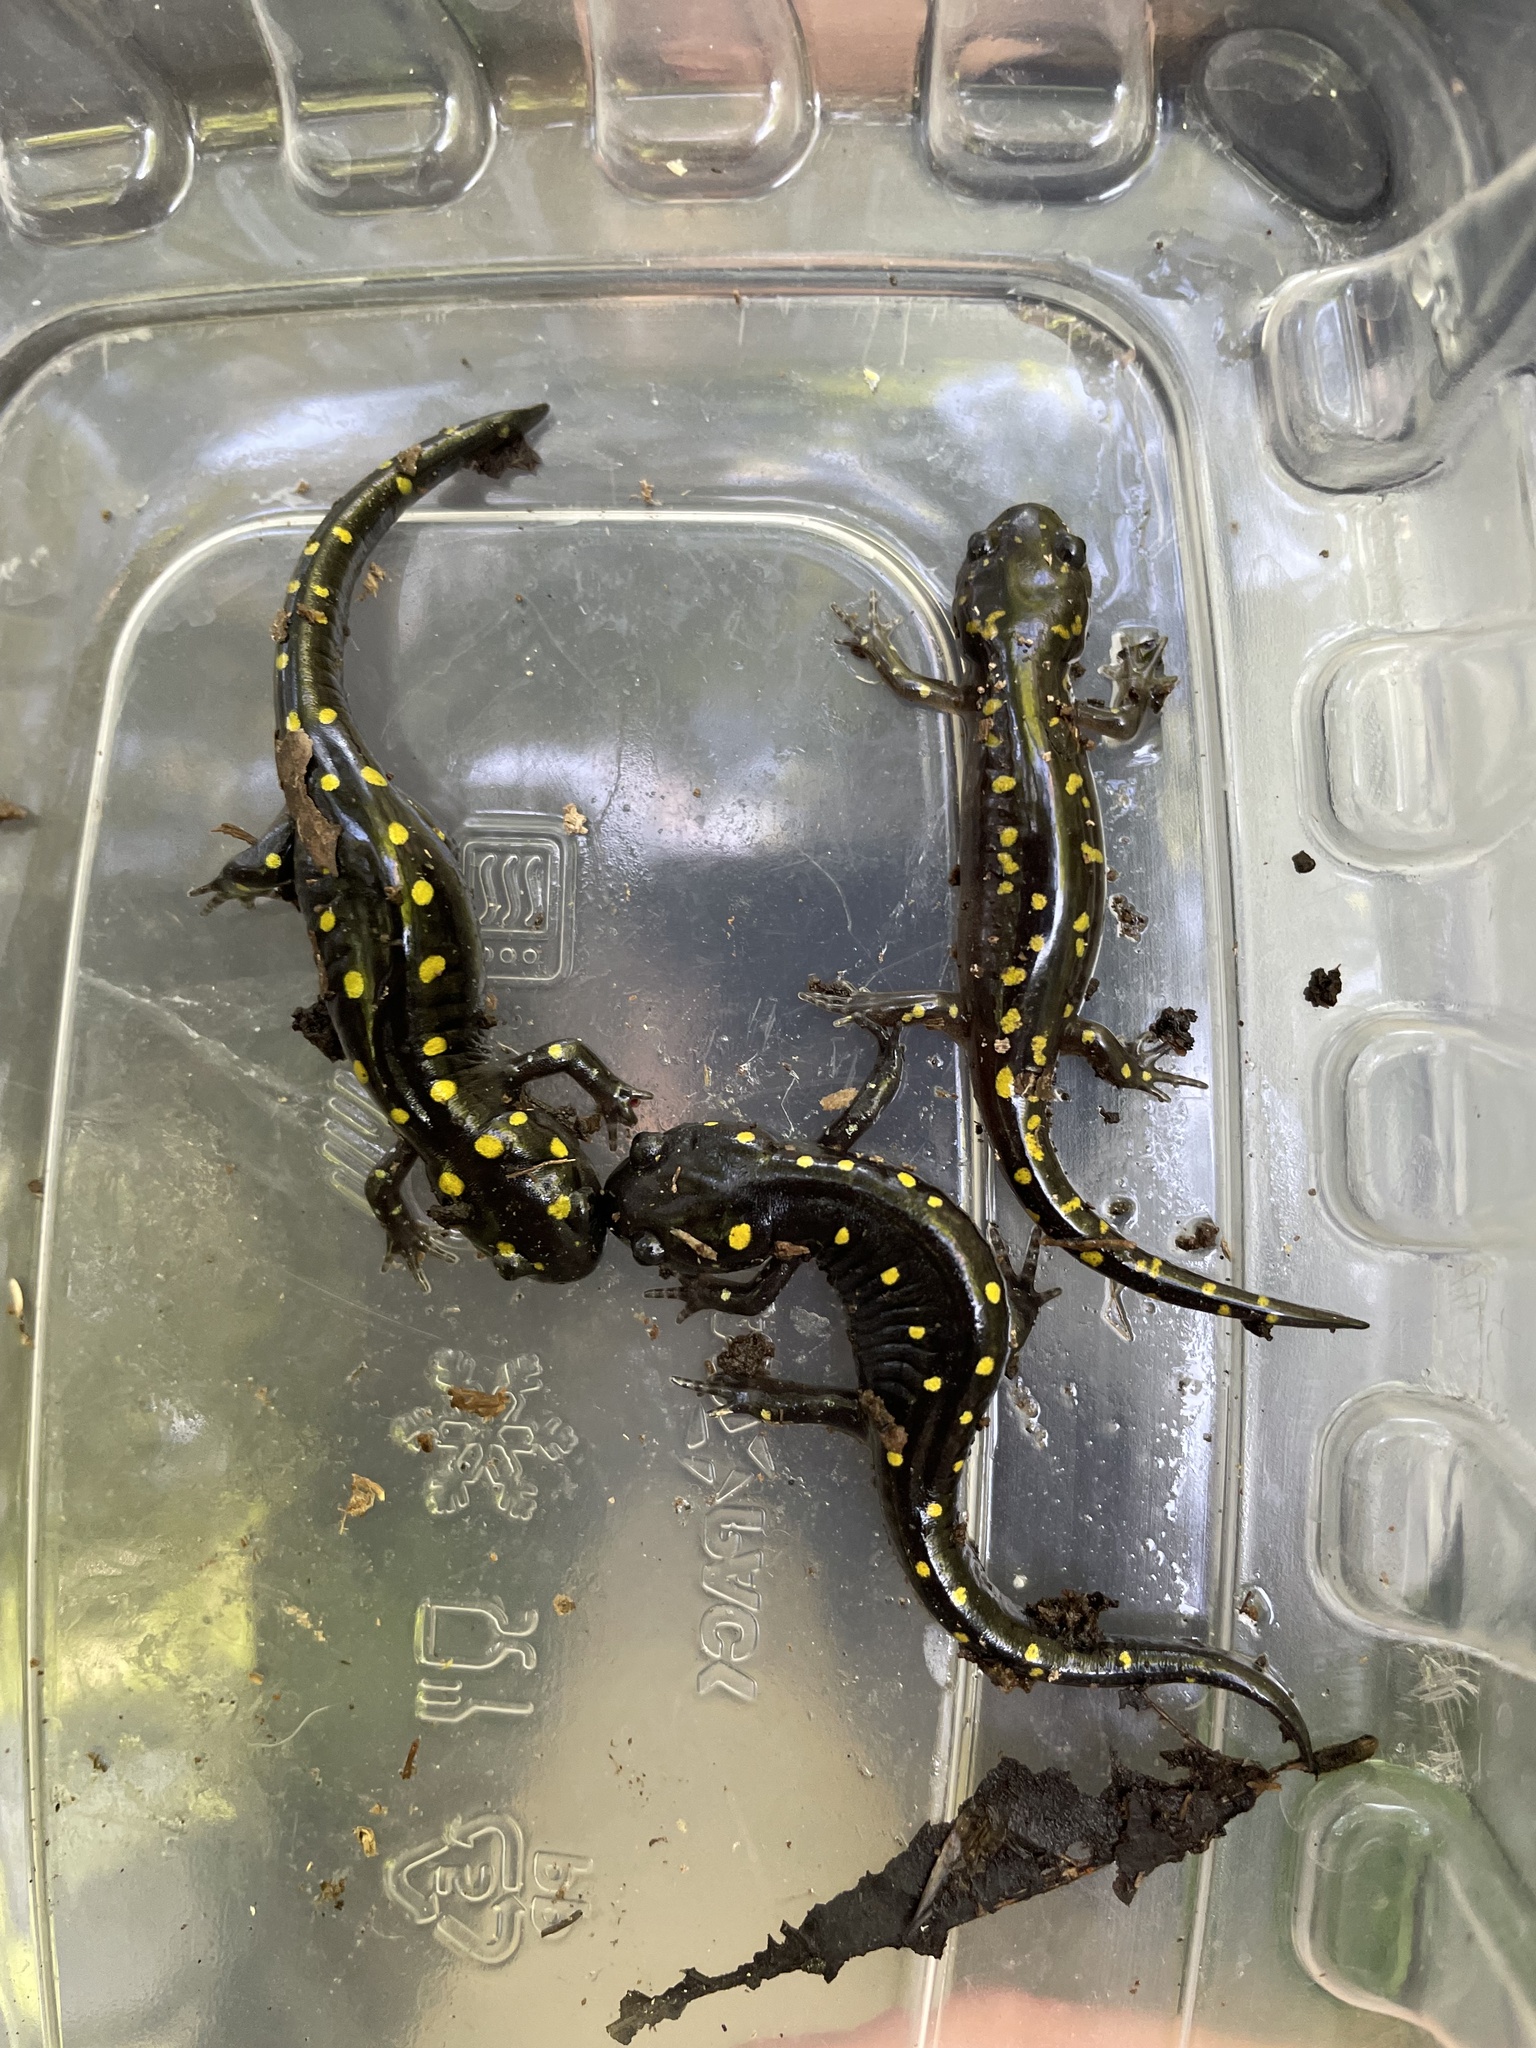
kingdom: Animalia
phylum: Chordata
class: Amphibia
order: Caudata
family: Ambystomatidae
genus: Ambystoma
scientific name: Ambystoma maculatum
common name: Spotted salamander
